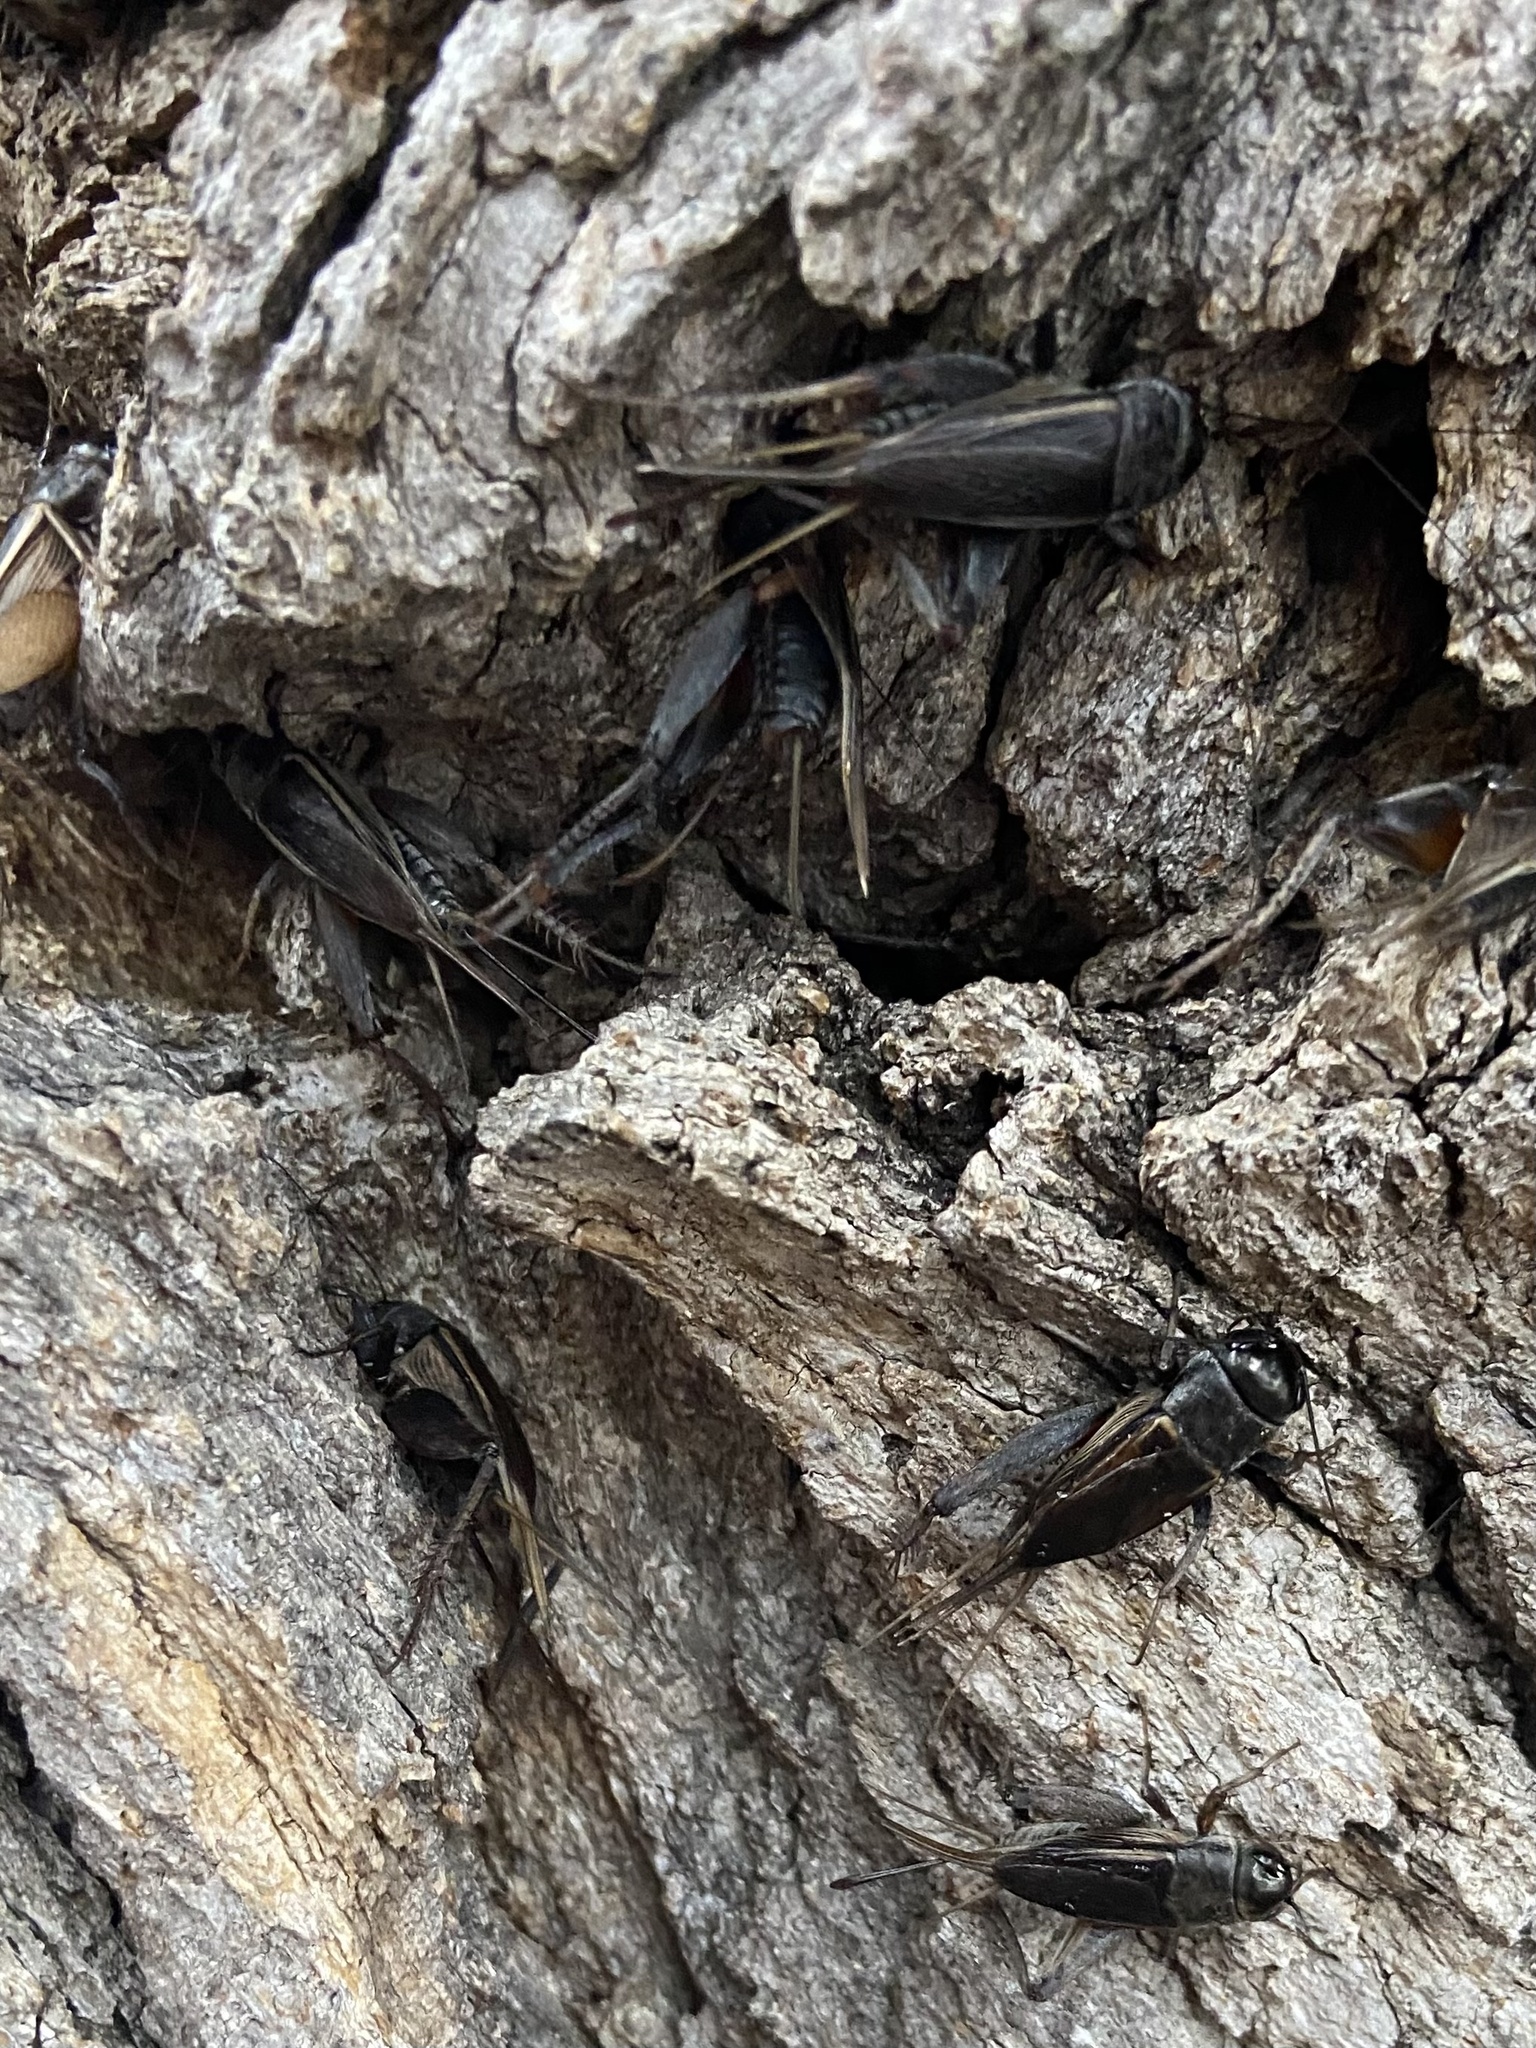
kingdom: Animalia
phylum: Arthropoda
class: Insecta
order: Orthoptera
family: Gryllidae
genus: Gryllus
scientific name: Gryllus
